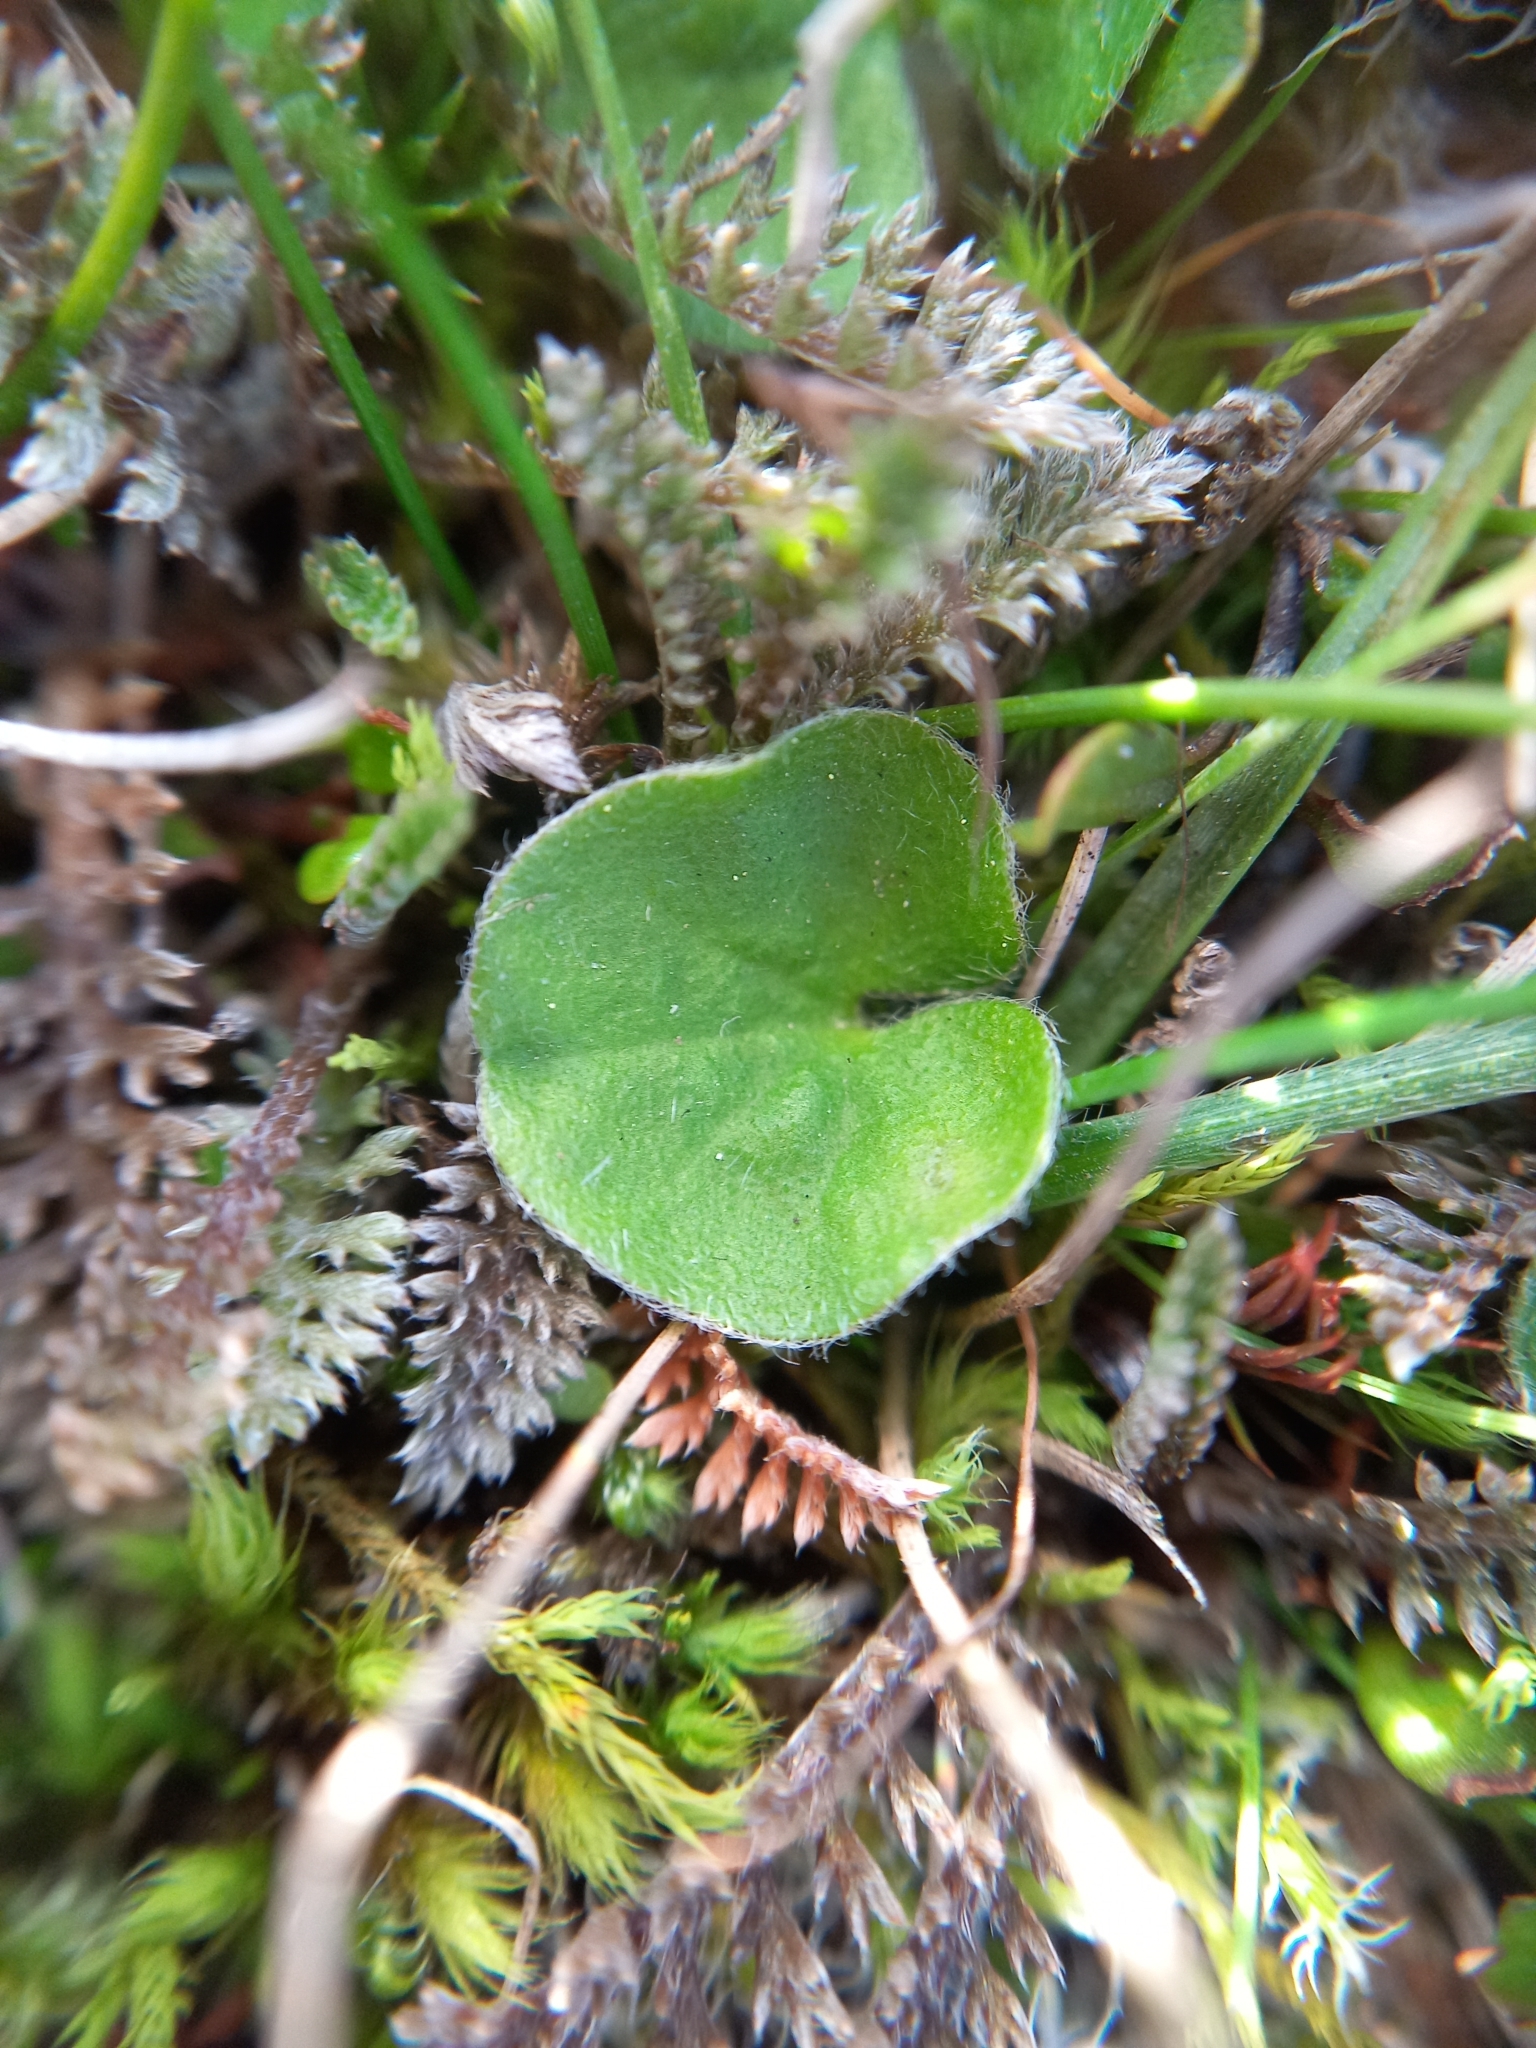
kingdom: Plantae
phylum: Tracheophyta
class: Magnoliopsida
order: Solanales
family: Convolvulaceae
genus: Dichondra
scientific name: Dichondra repens
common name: Kidneyweed
